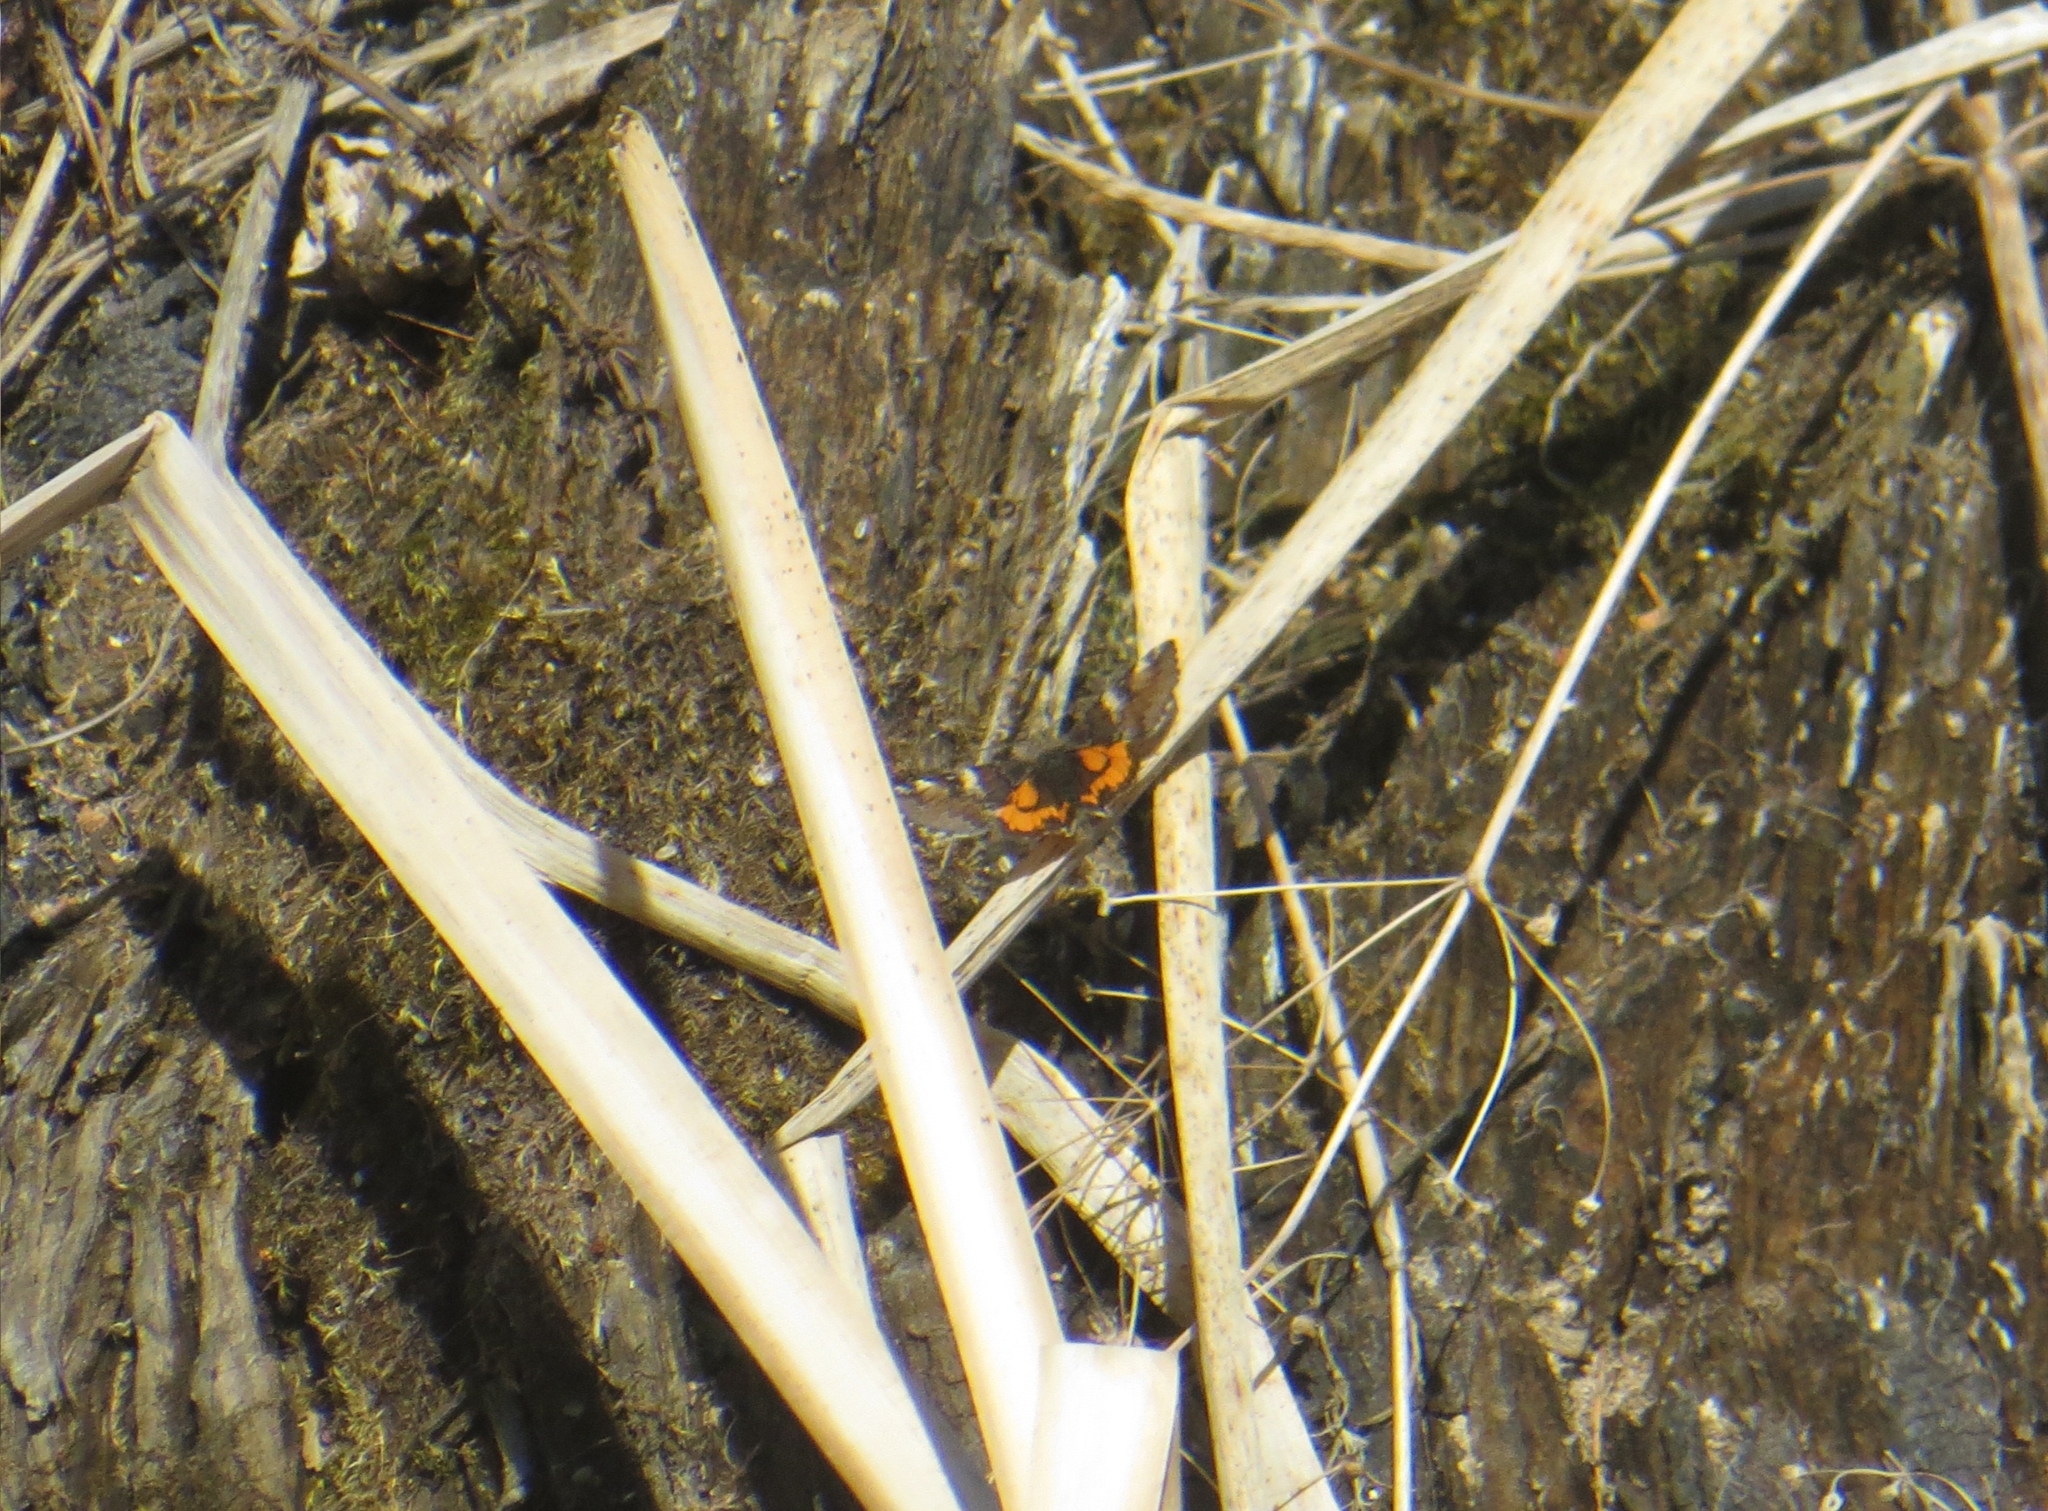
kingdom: Animalia
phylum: Arthropoda
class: Insecta
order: Lepidoptera
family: Geometridae
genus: Archiearis
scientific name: Archiearis parthenias
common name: Orange underwing
